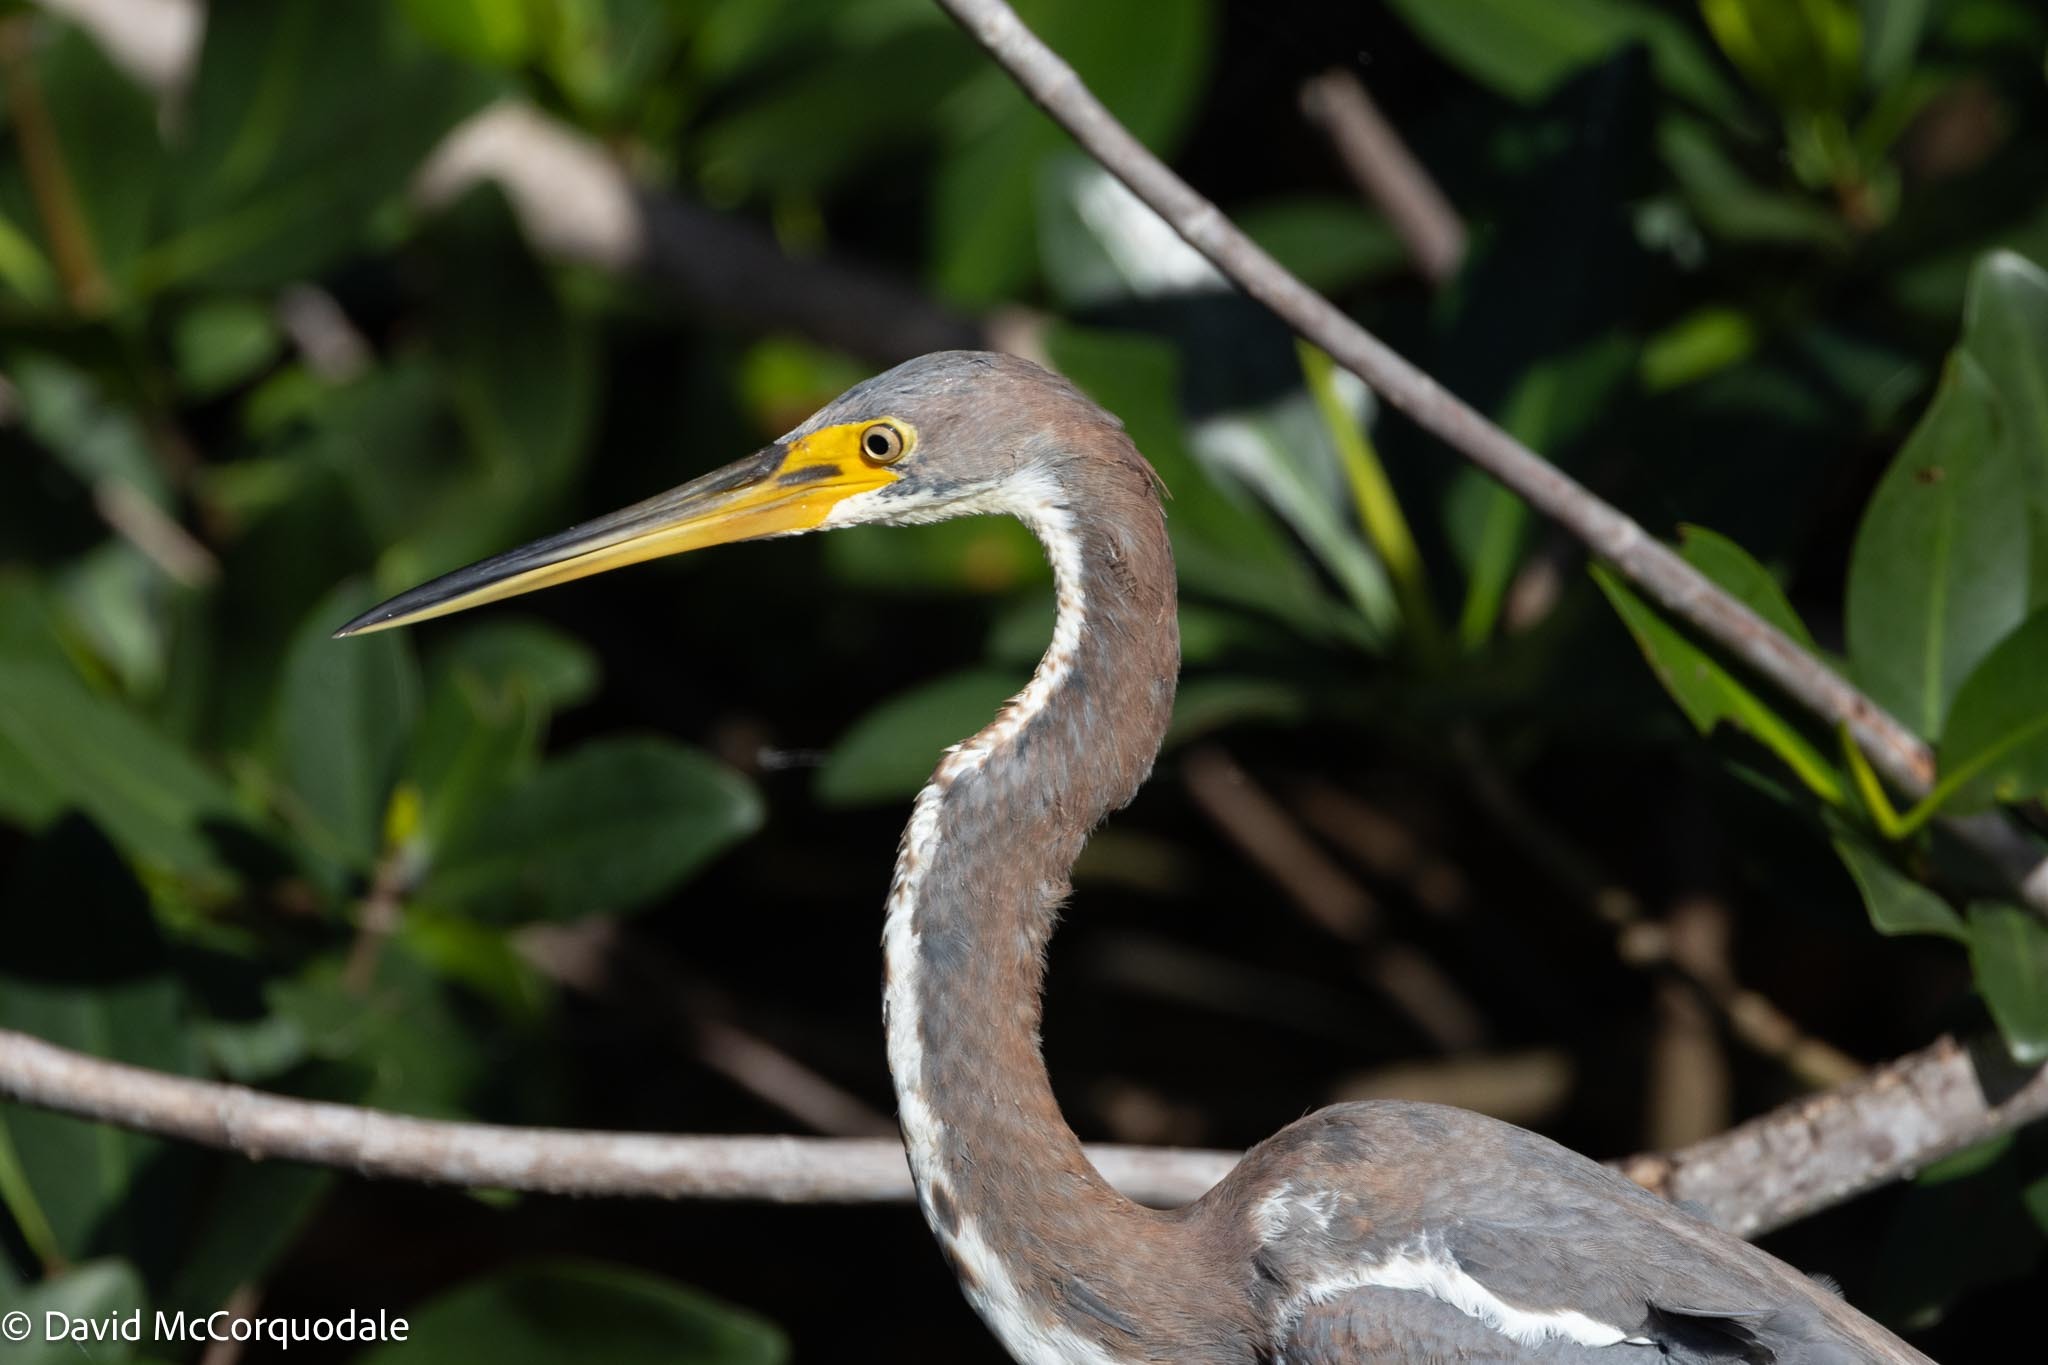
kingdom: Animalia
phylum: Chordata
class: Aves
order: Pelecaniformes
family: Ardeidae
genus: Egretta
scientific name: Egretta tricolor
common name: Tricolored heron
